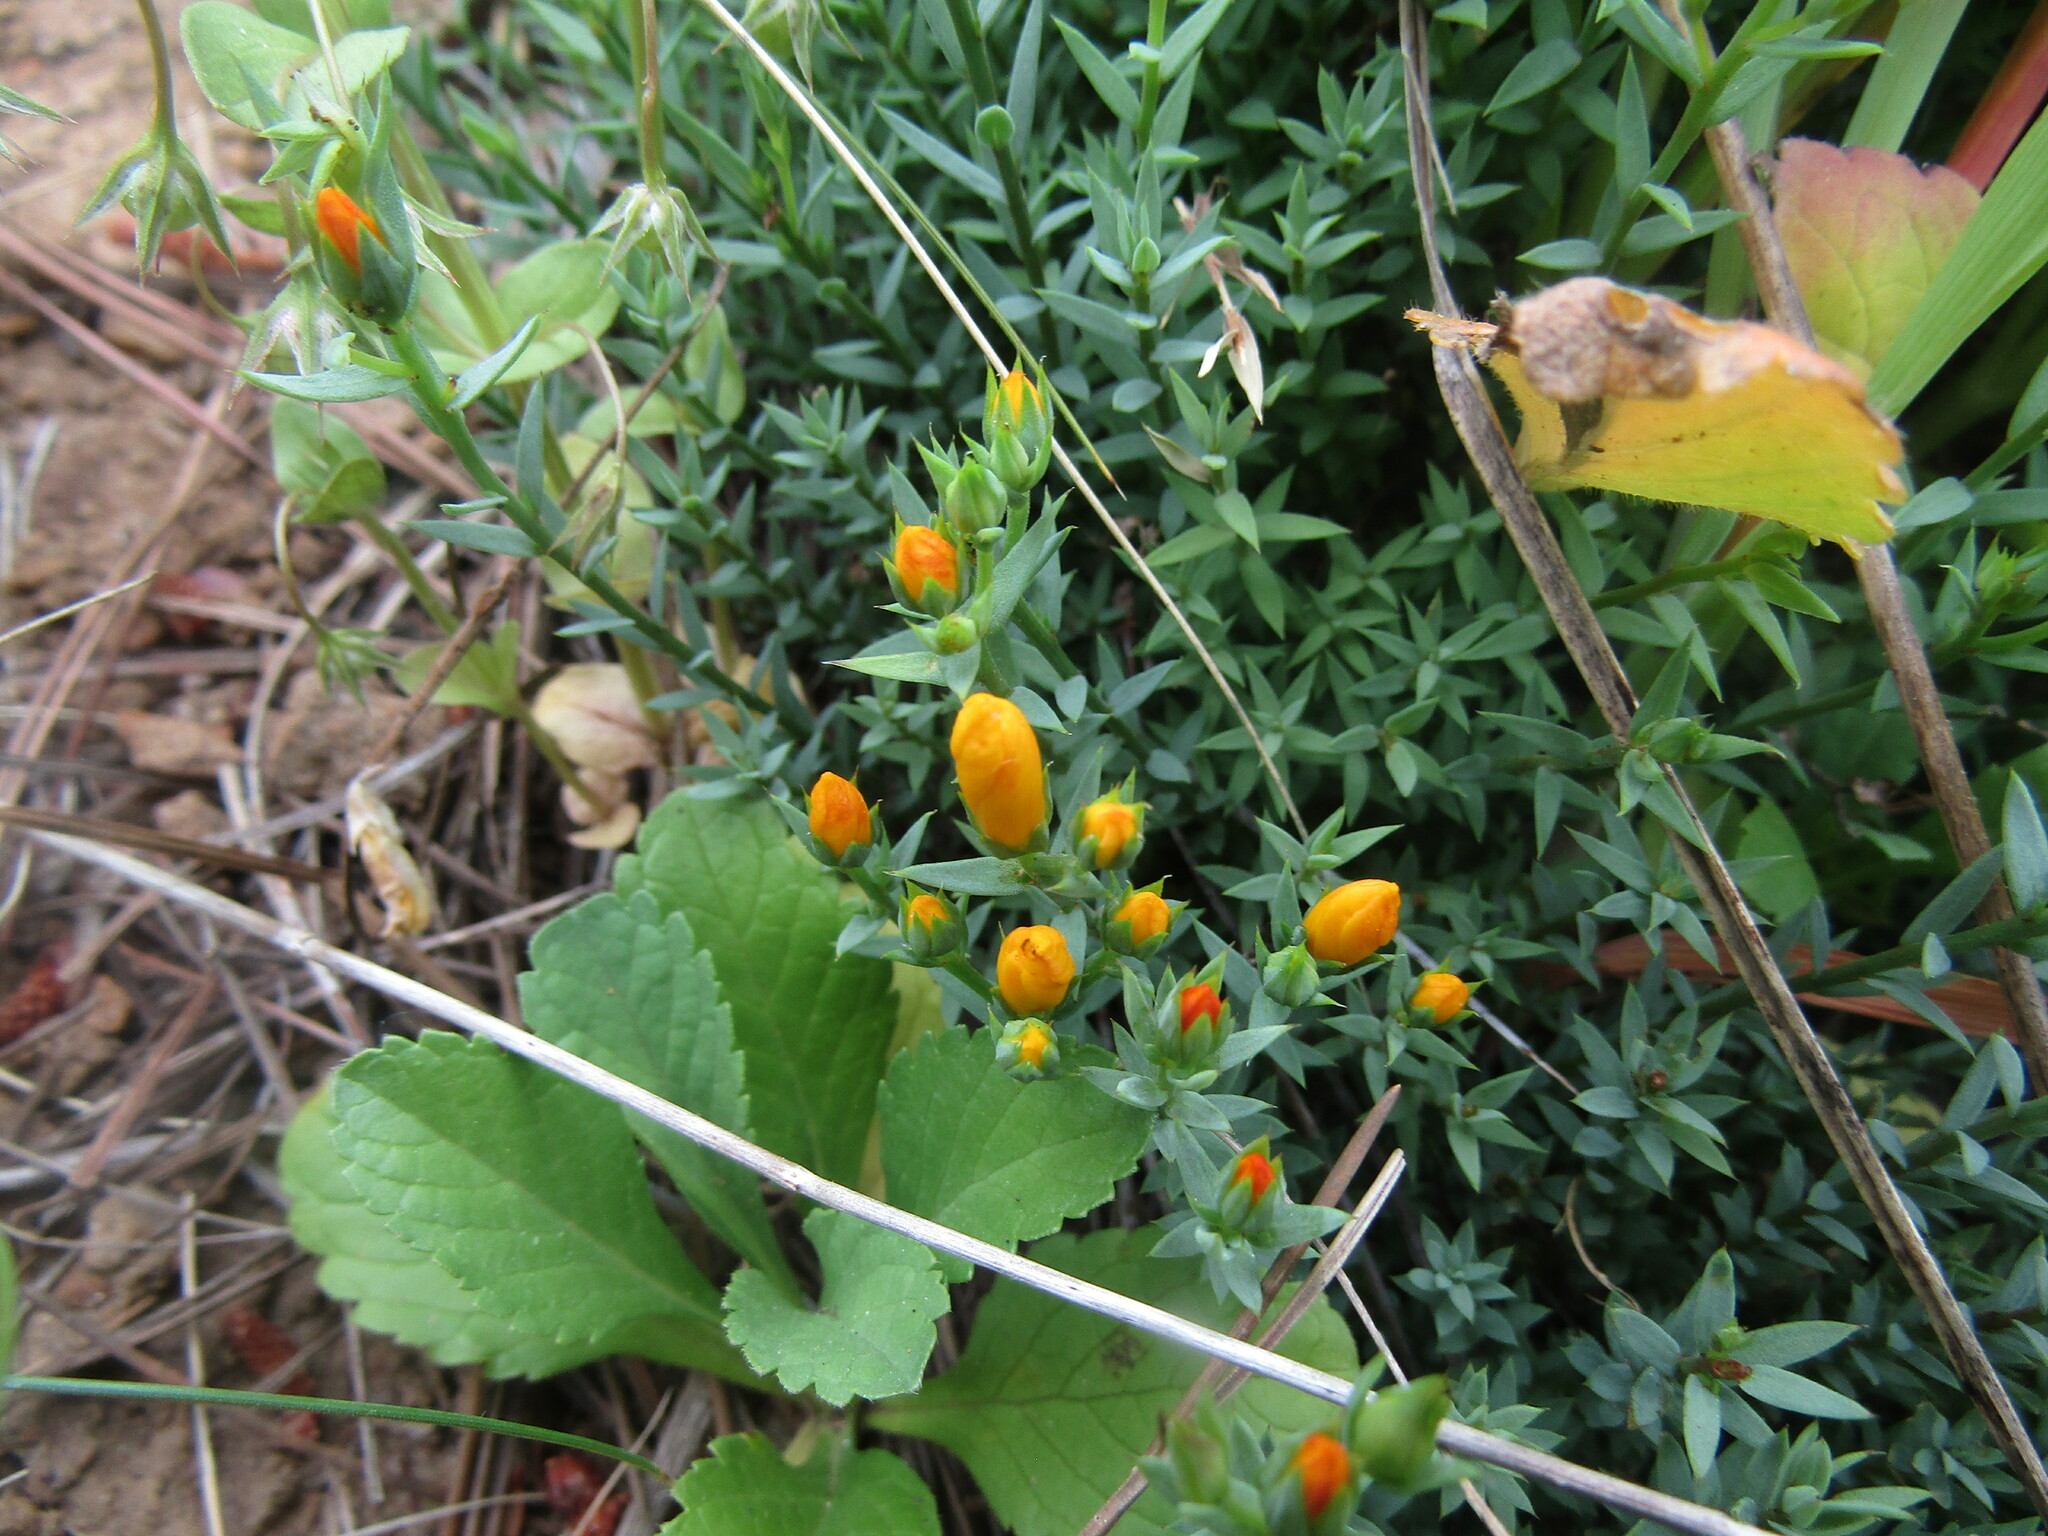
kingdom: Plantae
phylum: Tracheophyta
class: Magnoliopsida
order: Malpighiales
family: Linaceae
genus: Linum
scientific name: Linum macraei
